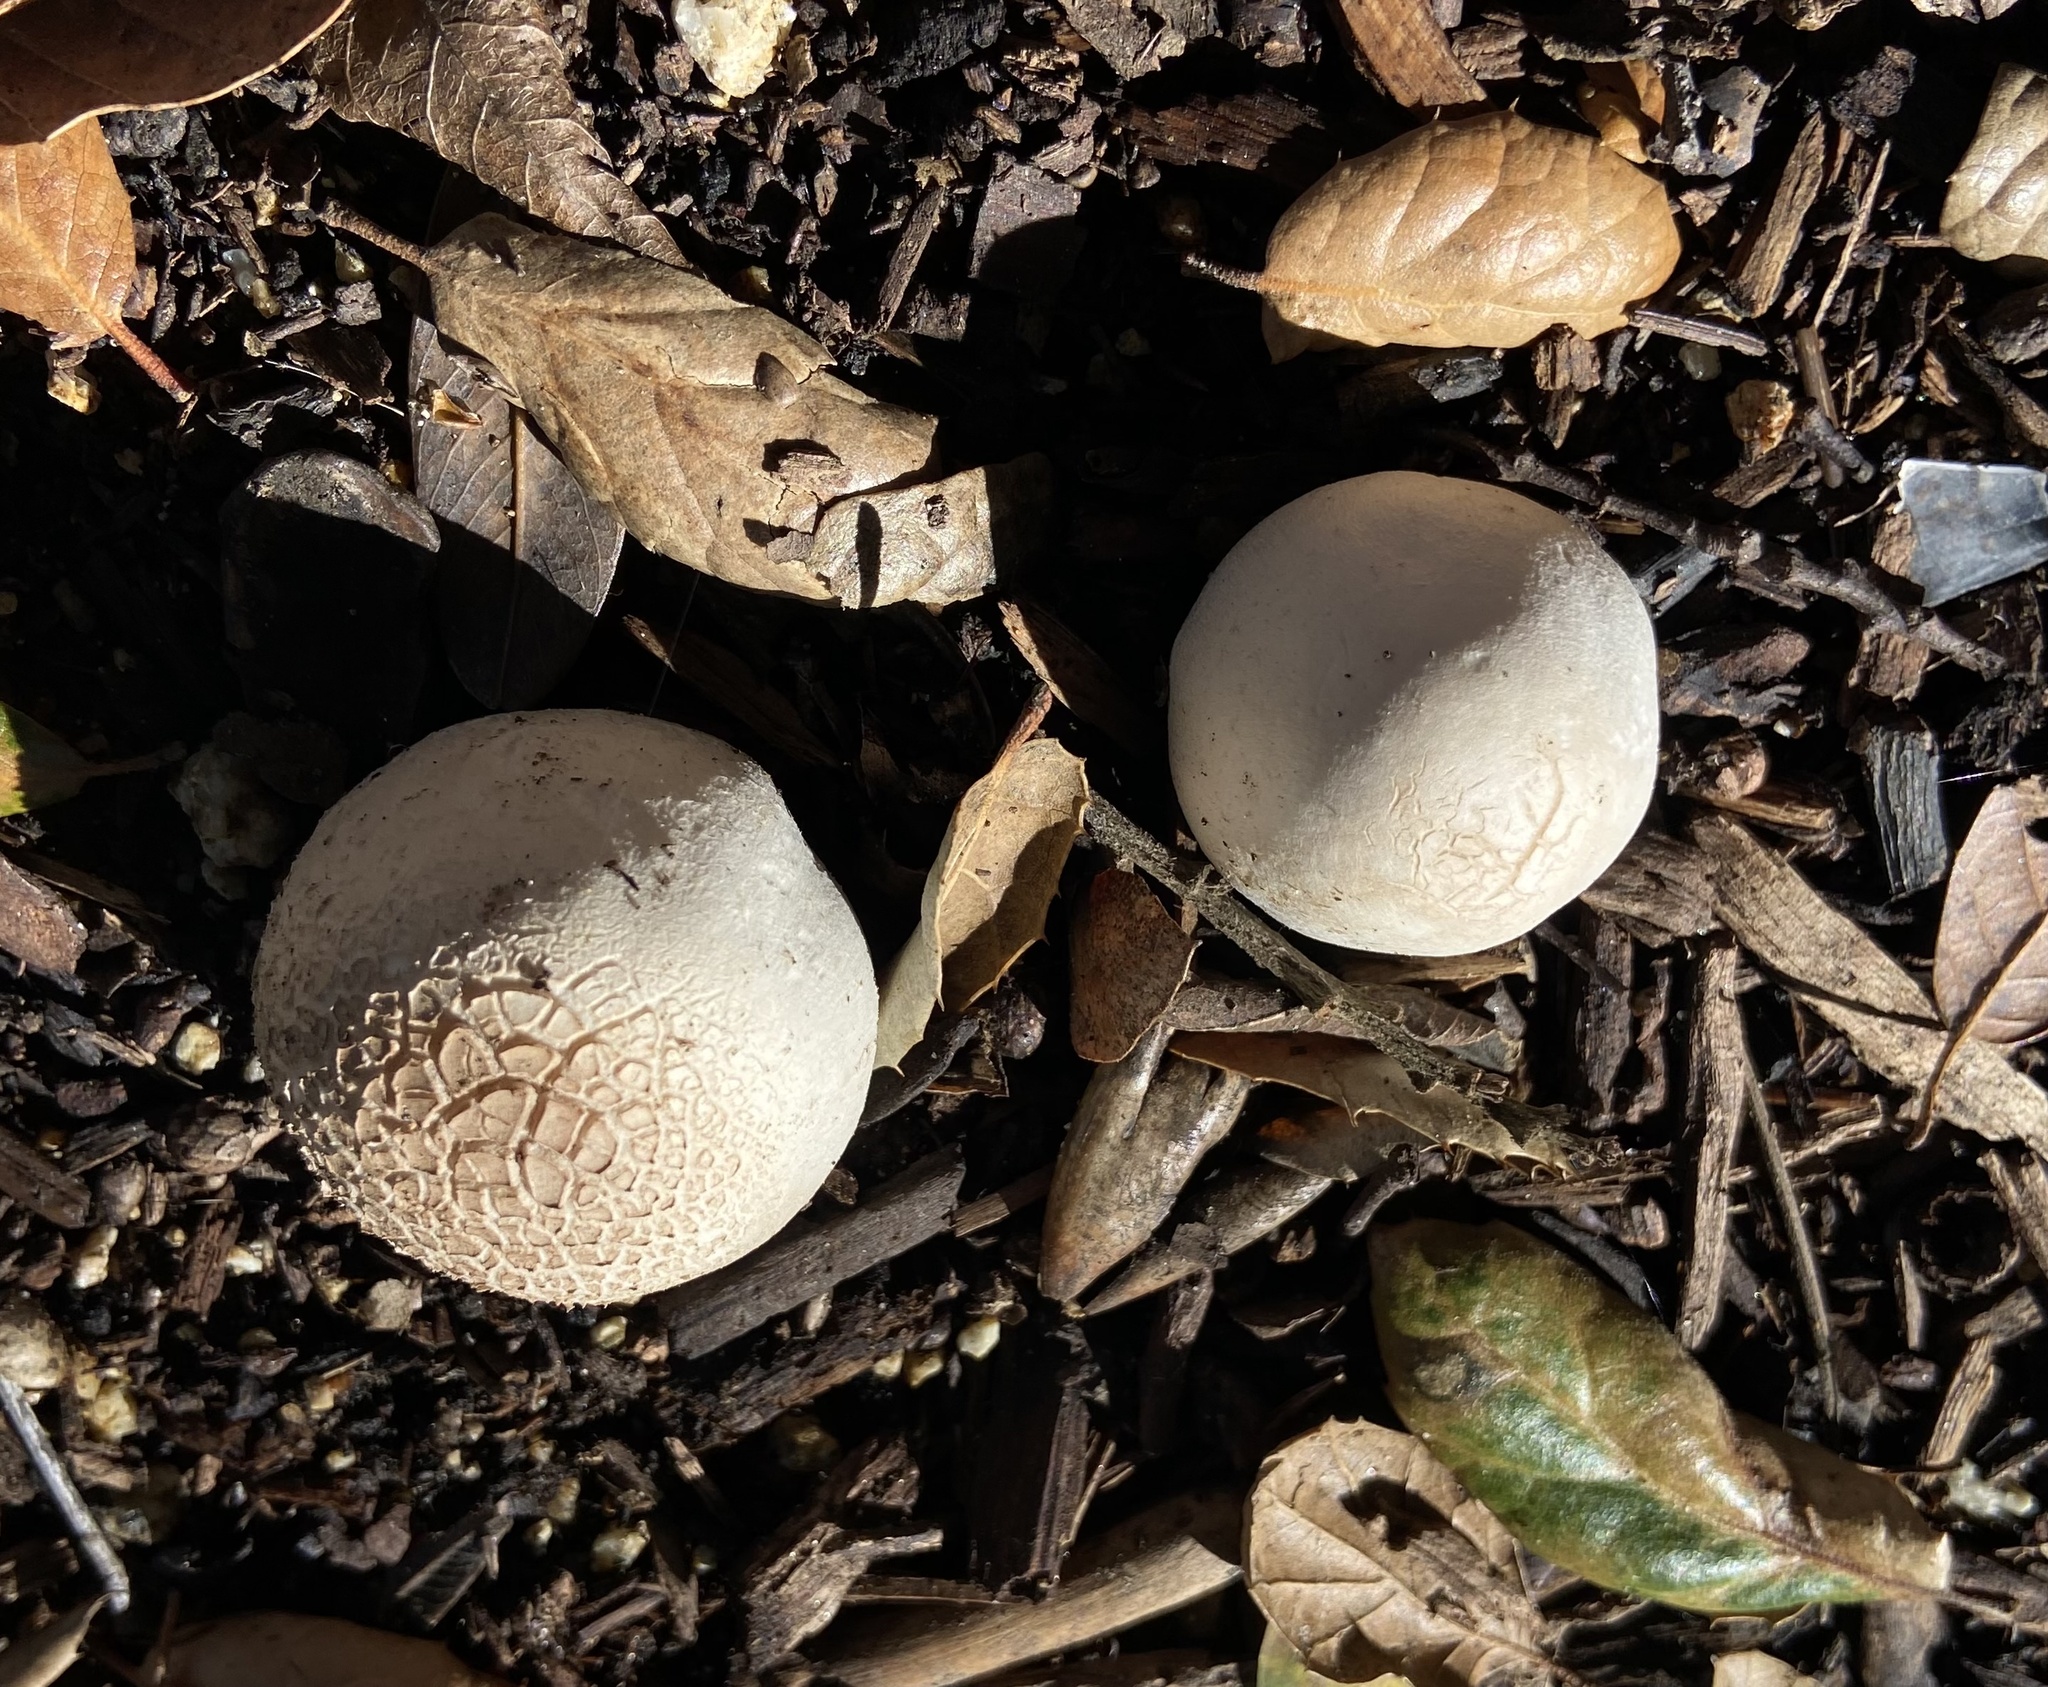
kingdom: Fungi
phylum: Basidiomycota
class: Agaricomycetes
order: Agaricales
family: Agaricaceae
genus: Agaricus
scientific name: Agaricus xanthodermus
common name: Yellow stainer
